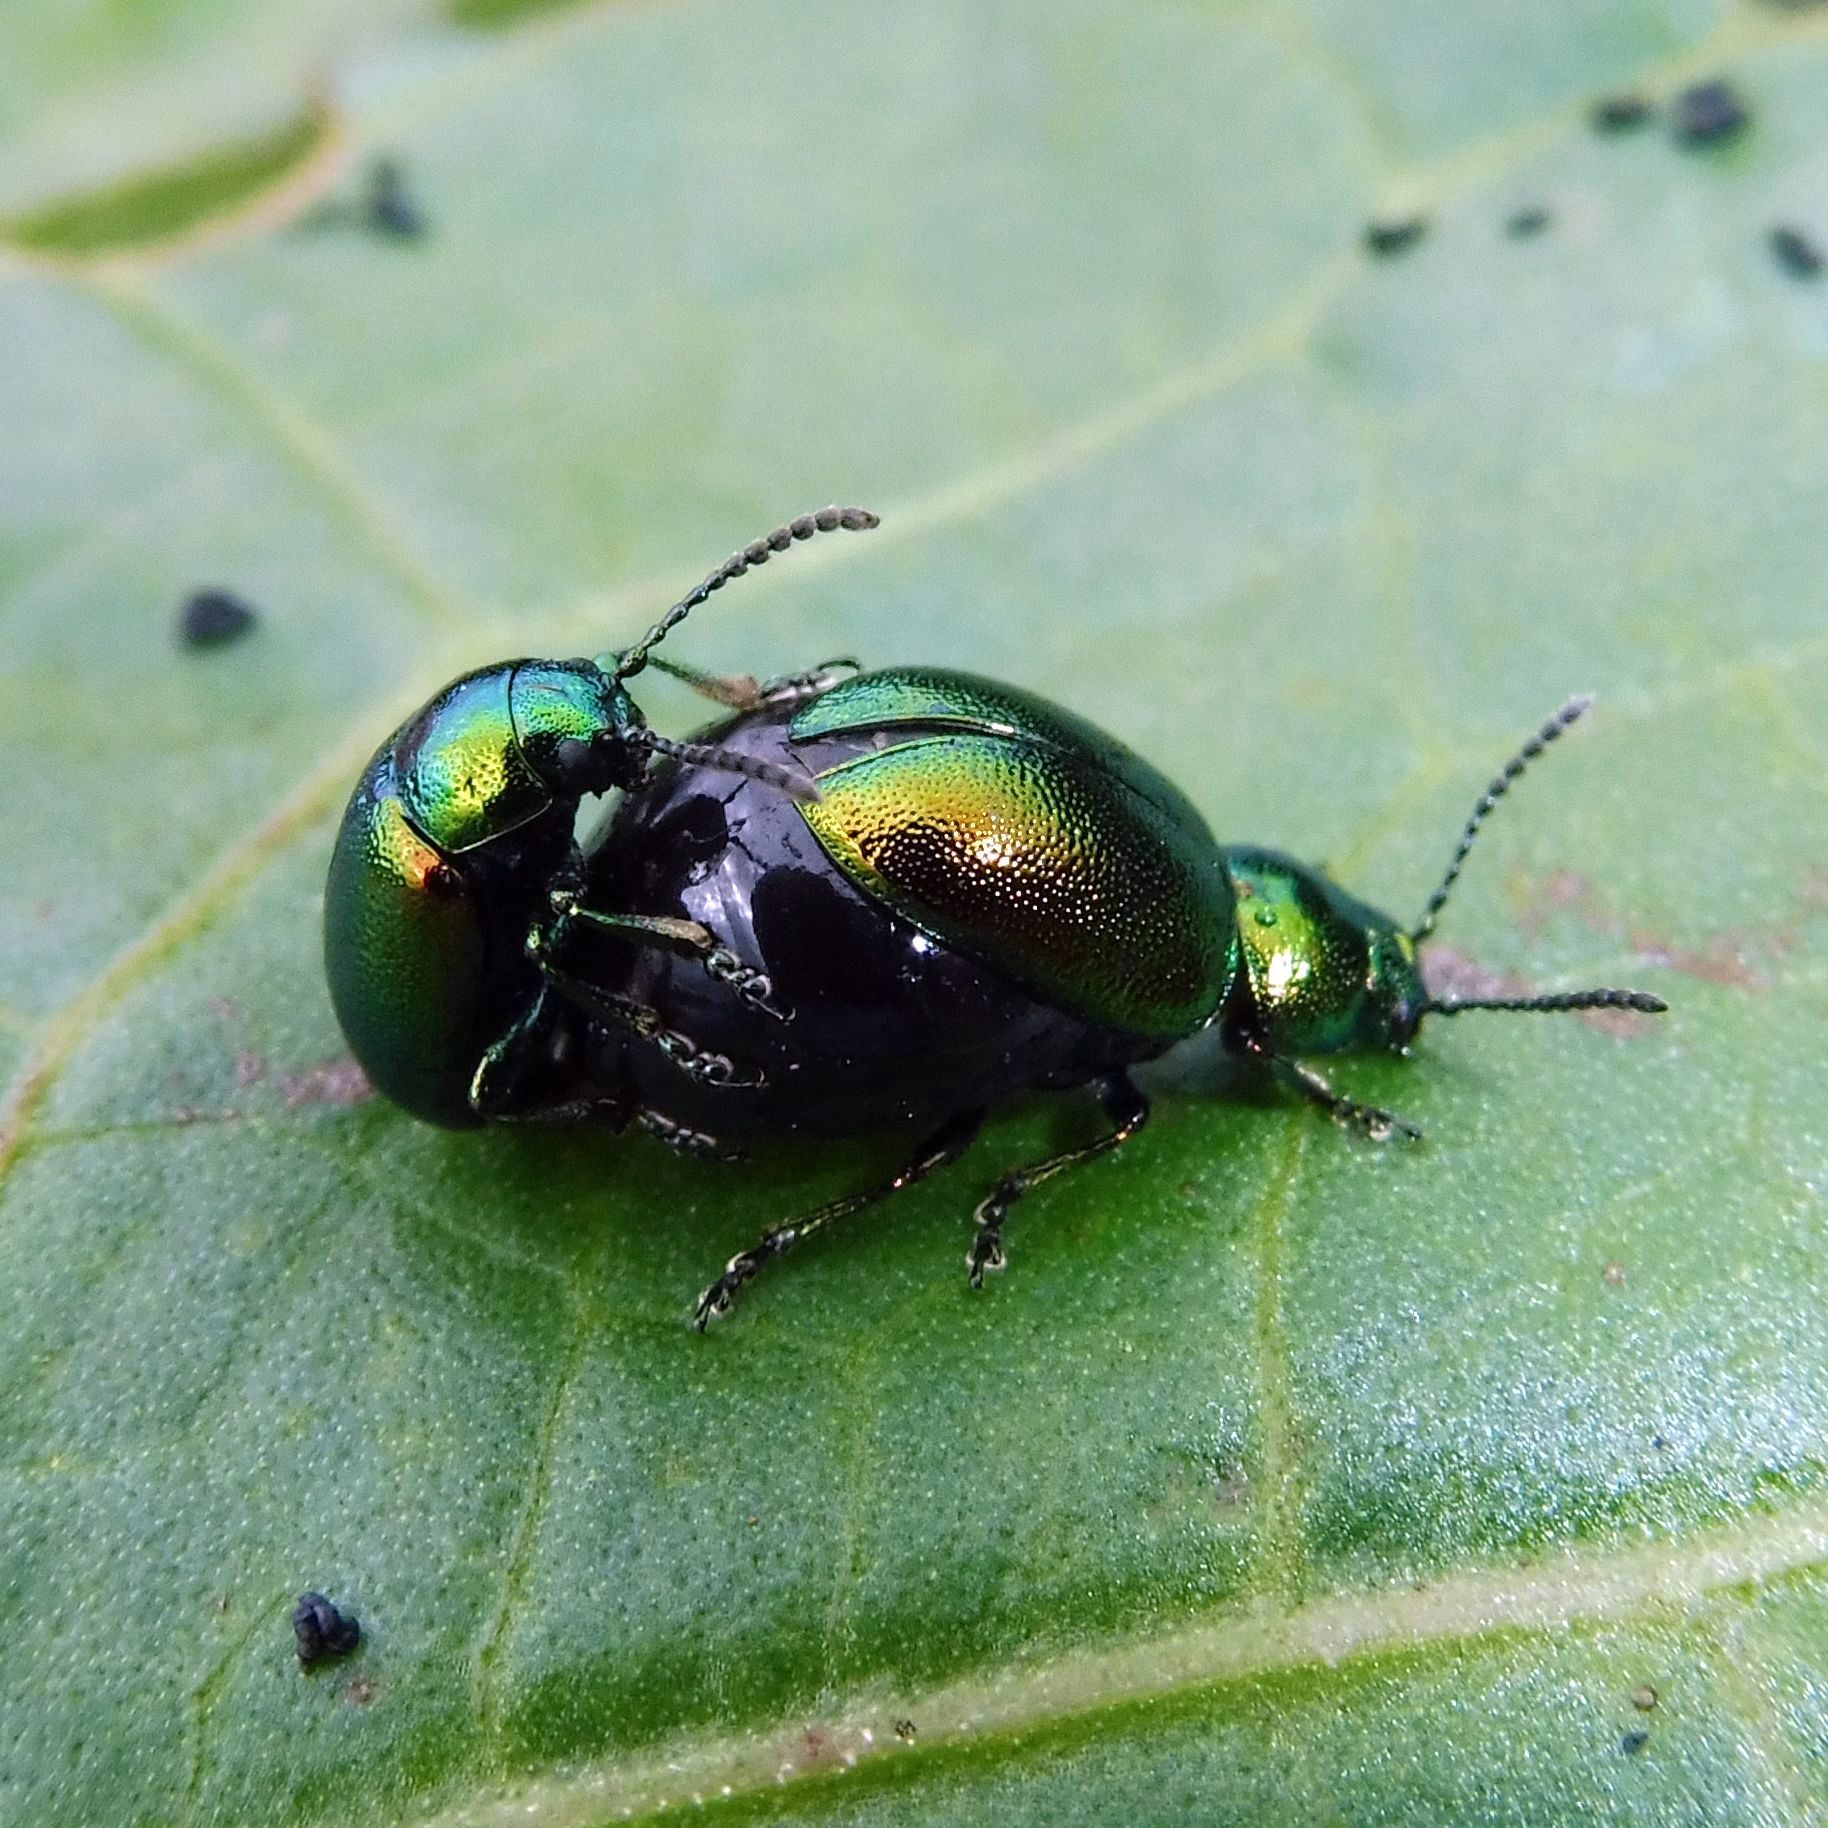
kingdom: Animalia
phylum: Arthropoda
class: Insecta
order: Coleoptera
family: Chrysomelidae
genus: Gastrophysa
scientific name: Gastrophysa viridula
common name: Green dock beetle
